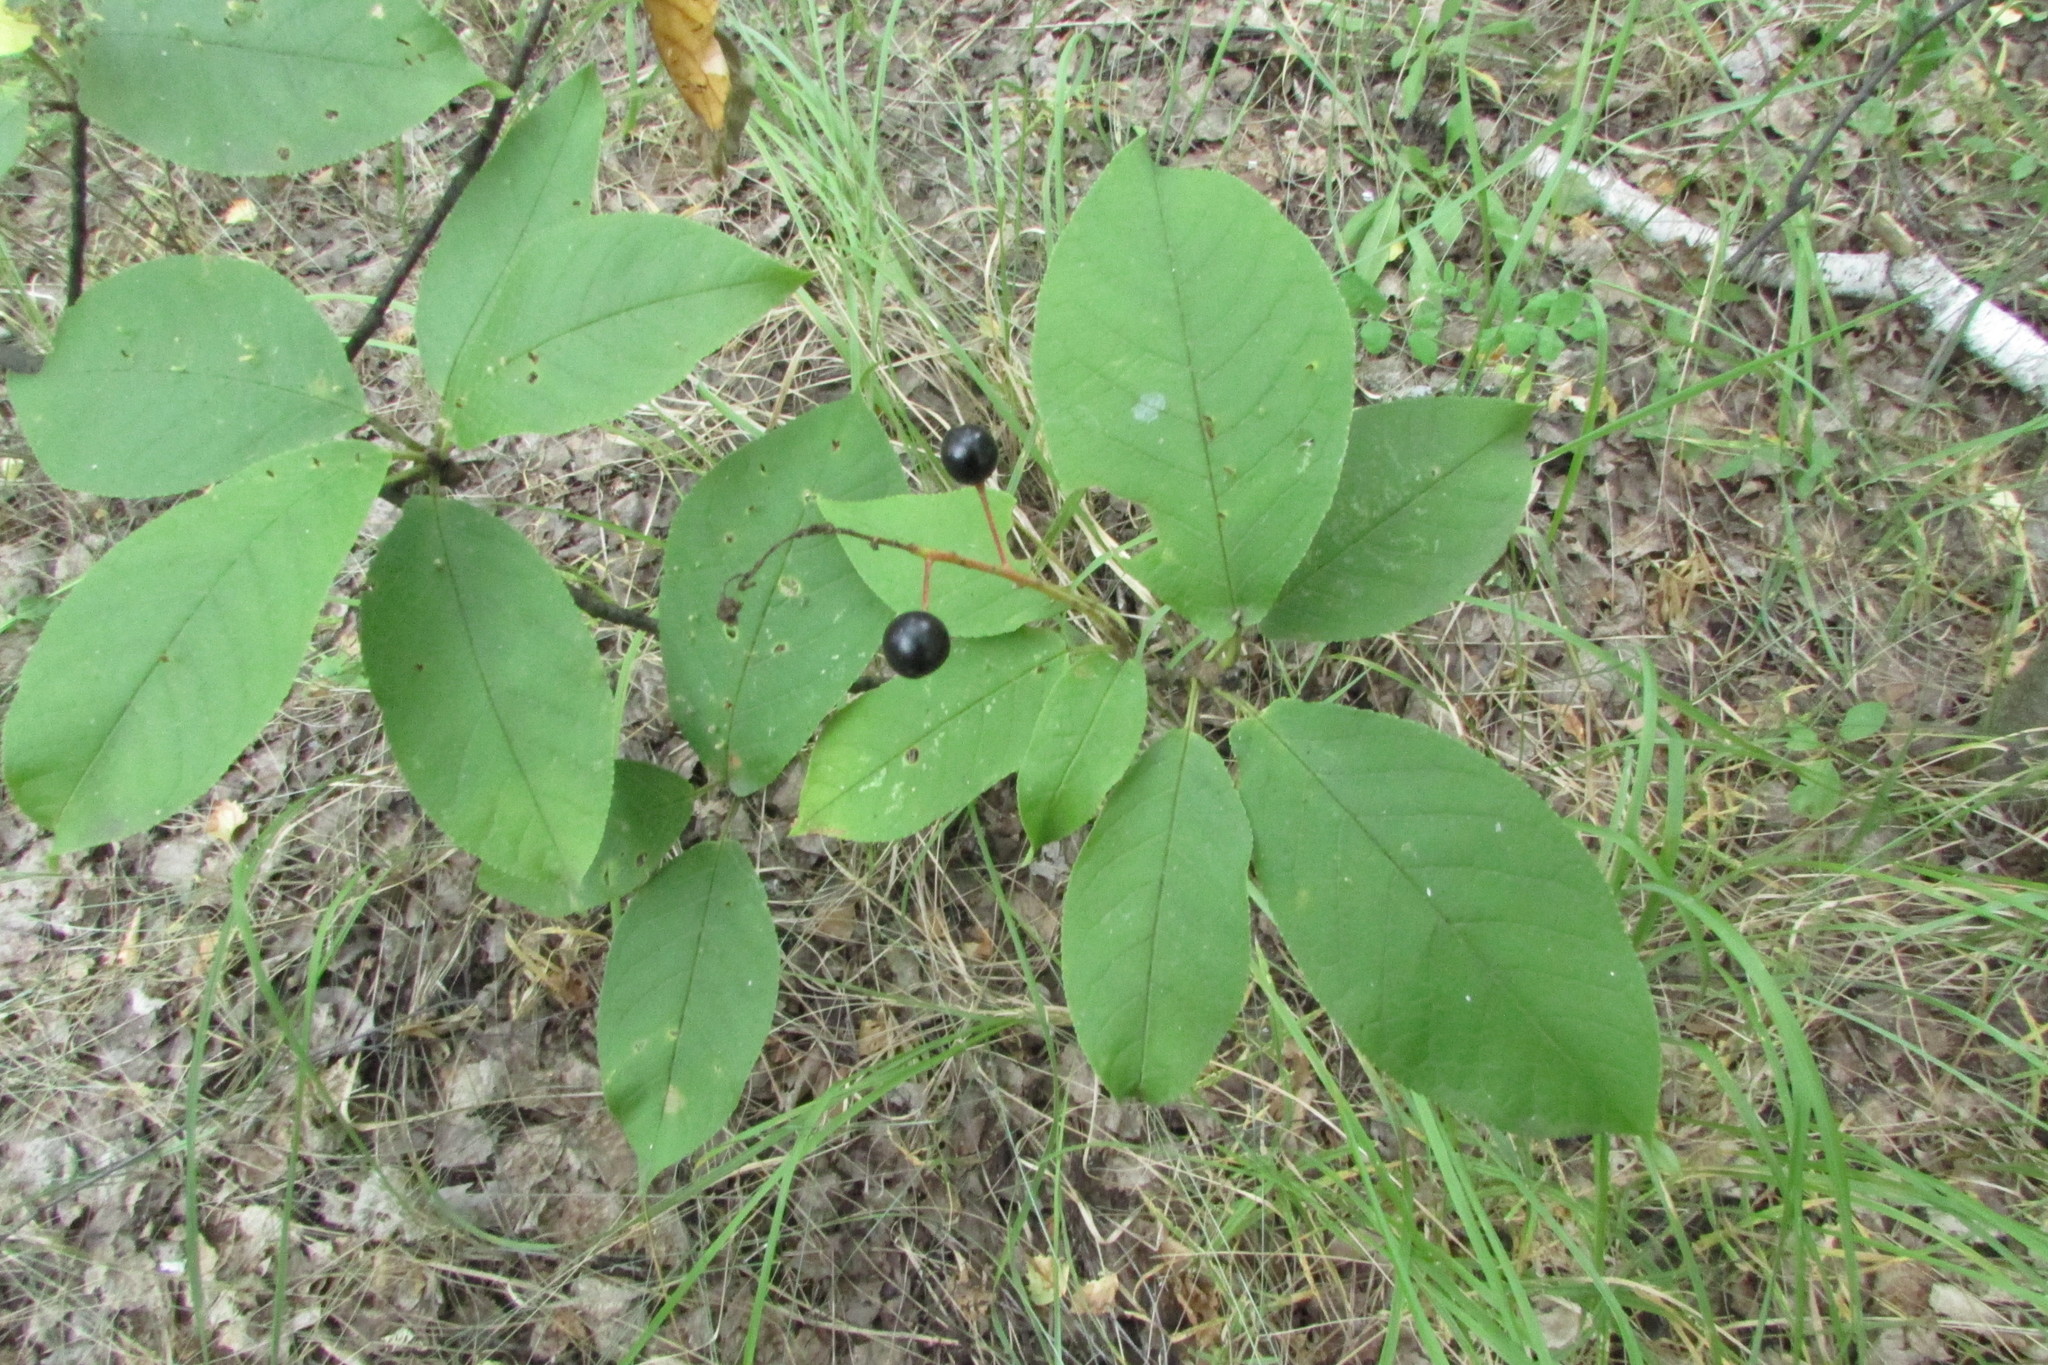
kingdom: Plantae
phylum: Tracheophyta
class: Magnoliopsida
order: Rosales
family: Rosaceae
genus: Prunus
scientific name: Prunus padus
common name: Bird cherry
